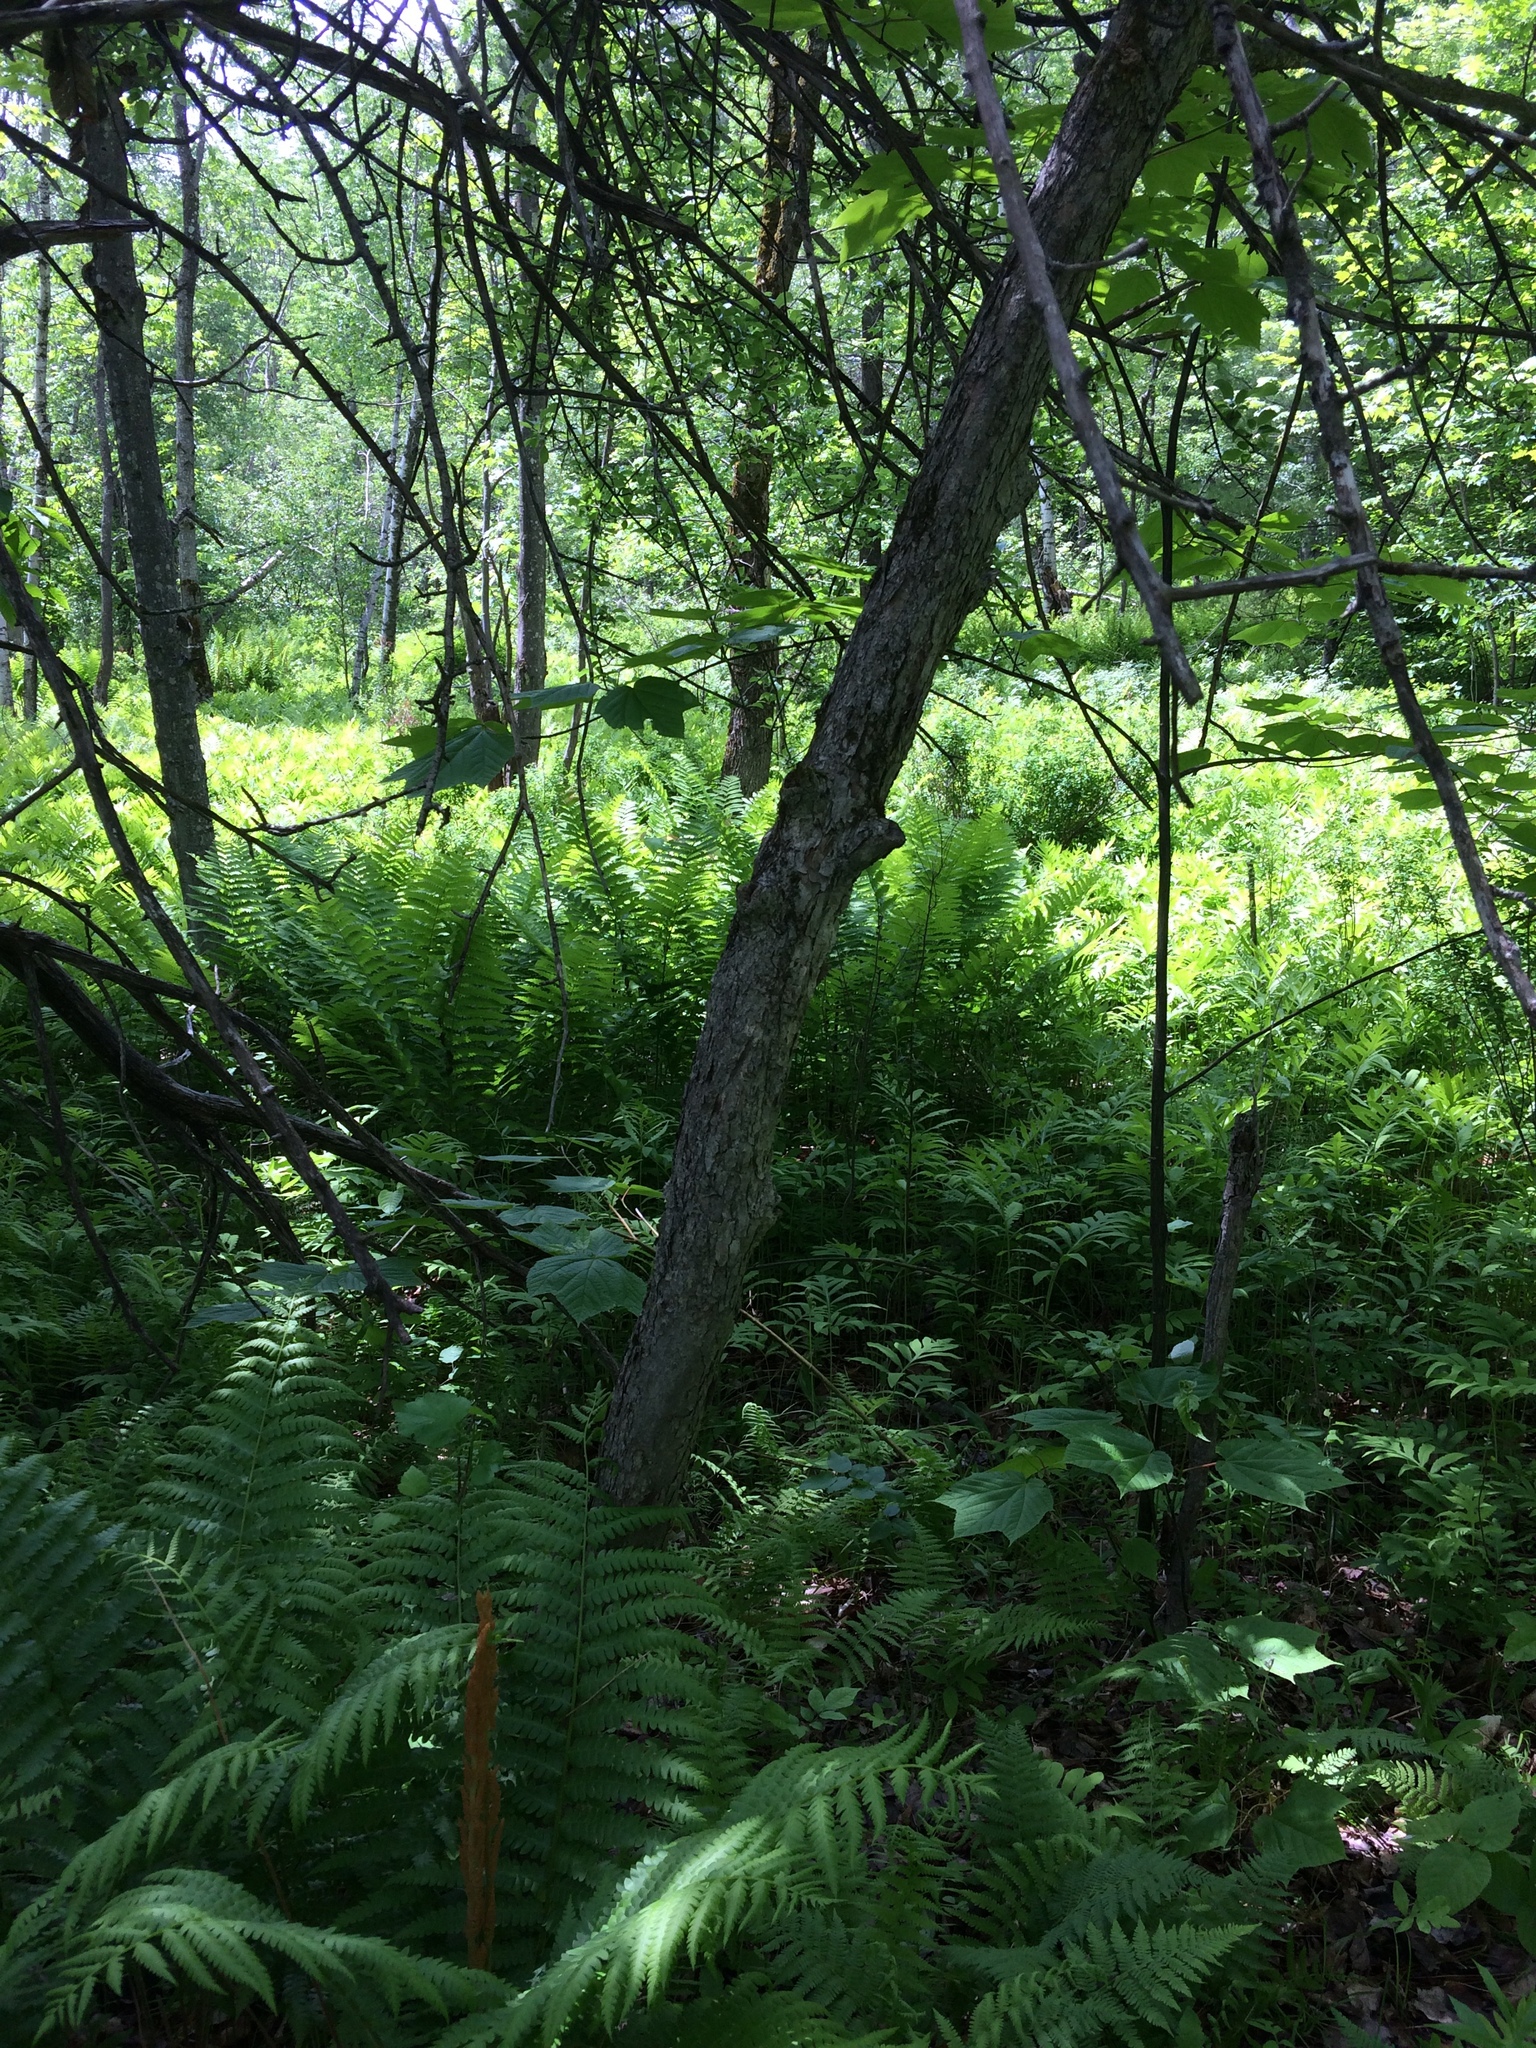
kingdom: Plantae
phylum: Tracheophyta
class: Magnoliopsida
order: Rosales
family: Rosaceae
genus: Crataegus
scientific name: Crataegus
